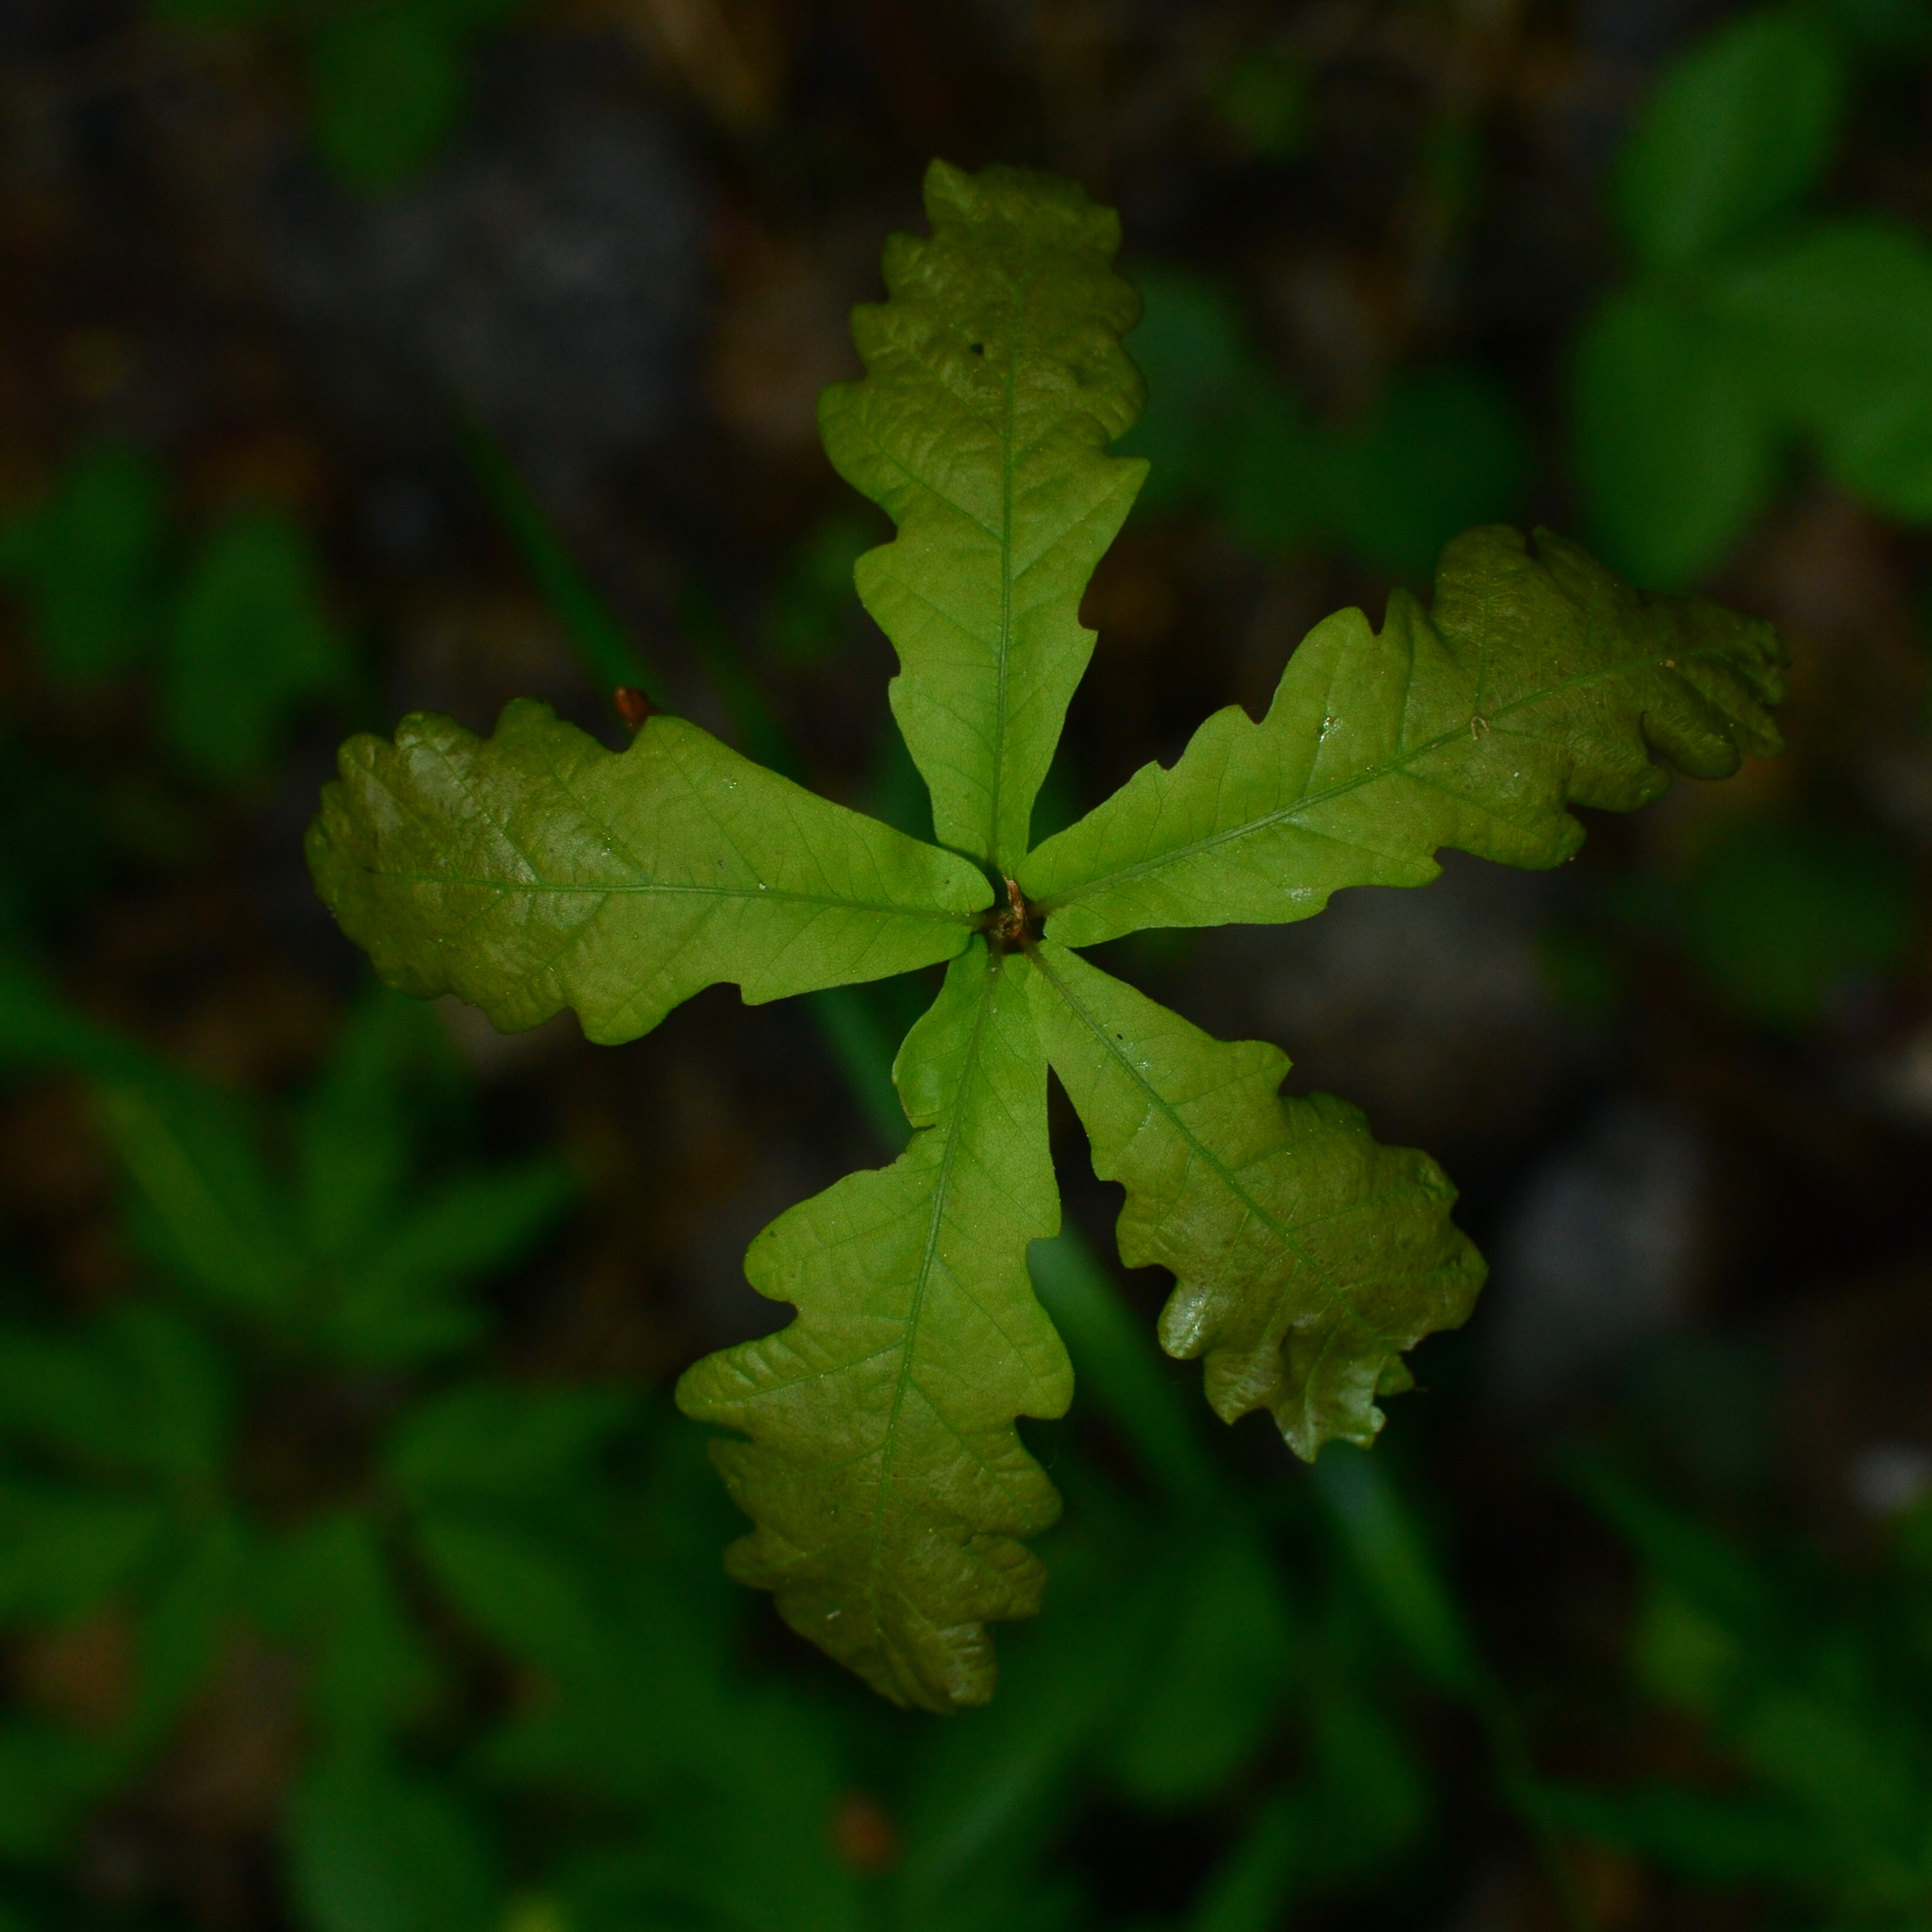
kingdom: Plantae
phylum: Tracheophyta
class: Magnoliopsida
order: Fagales
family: Fagaceae
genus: Quercus
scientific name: Quercus robur
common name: Pedunculate oak
